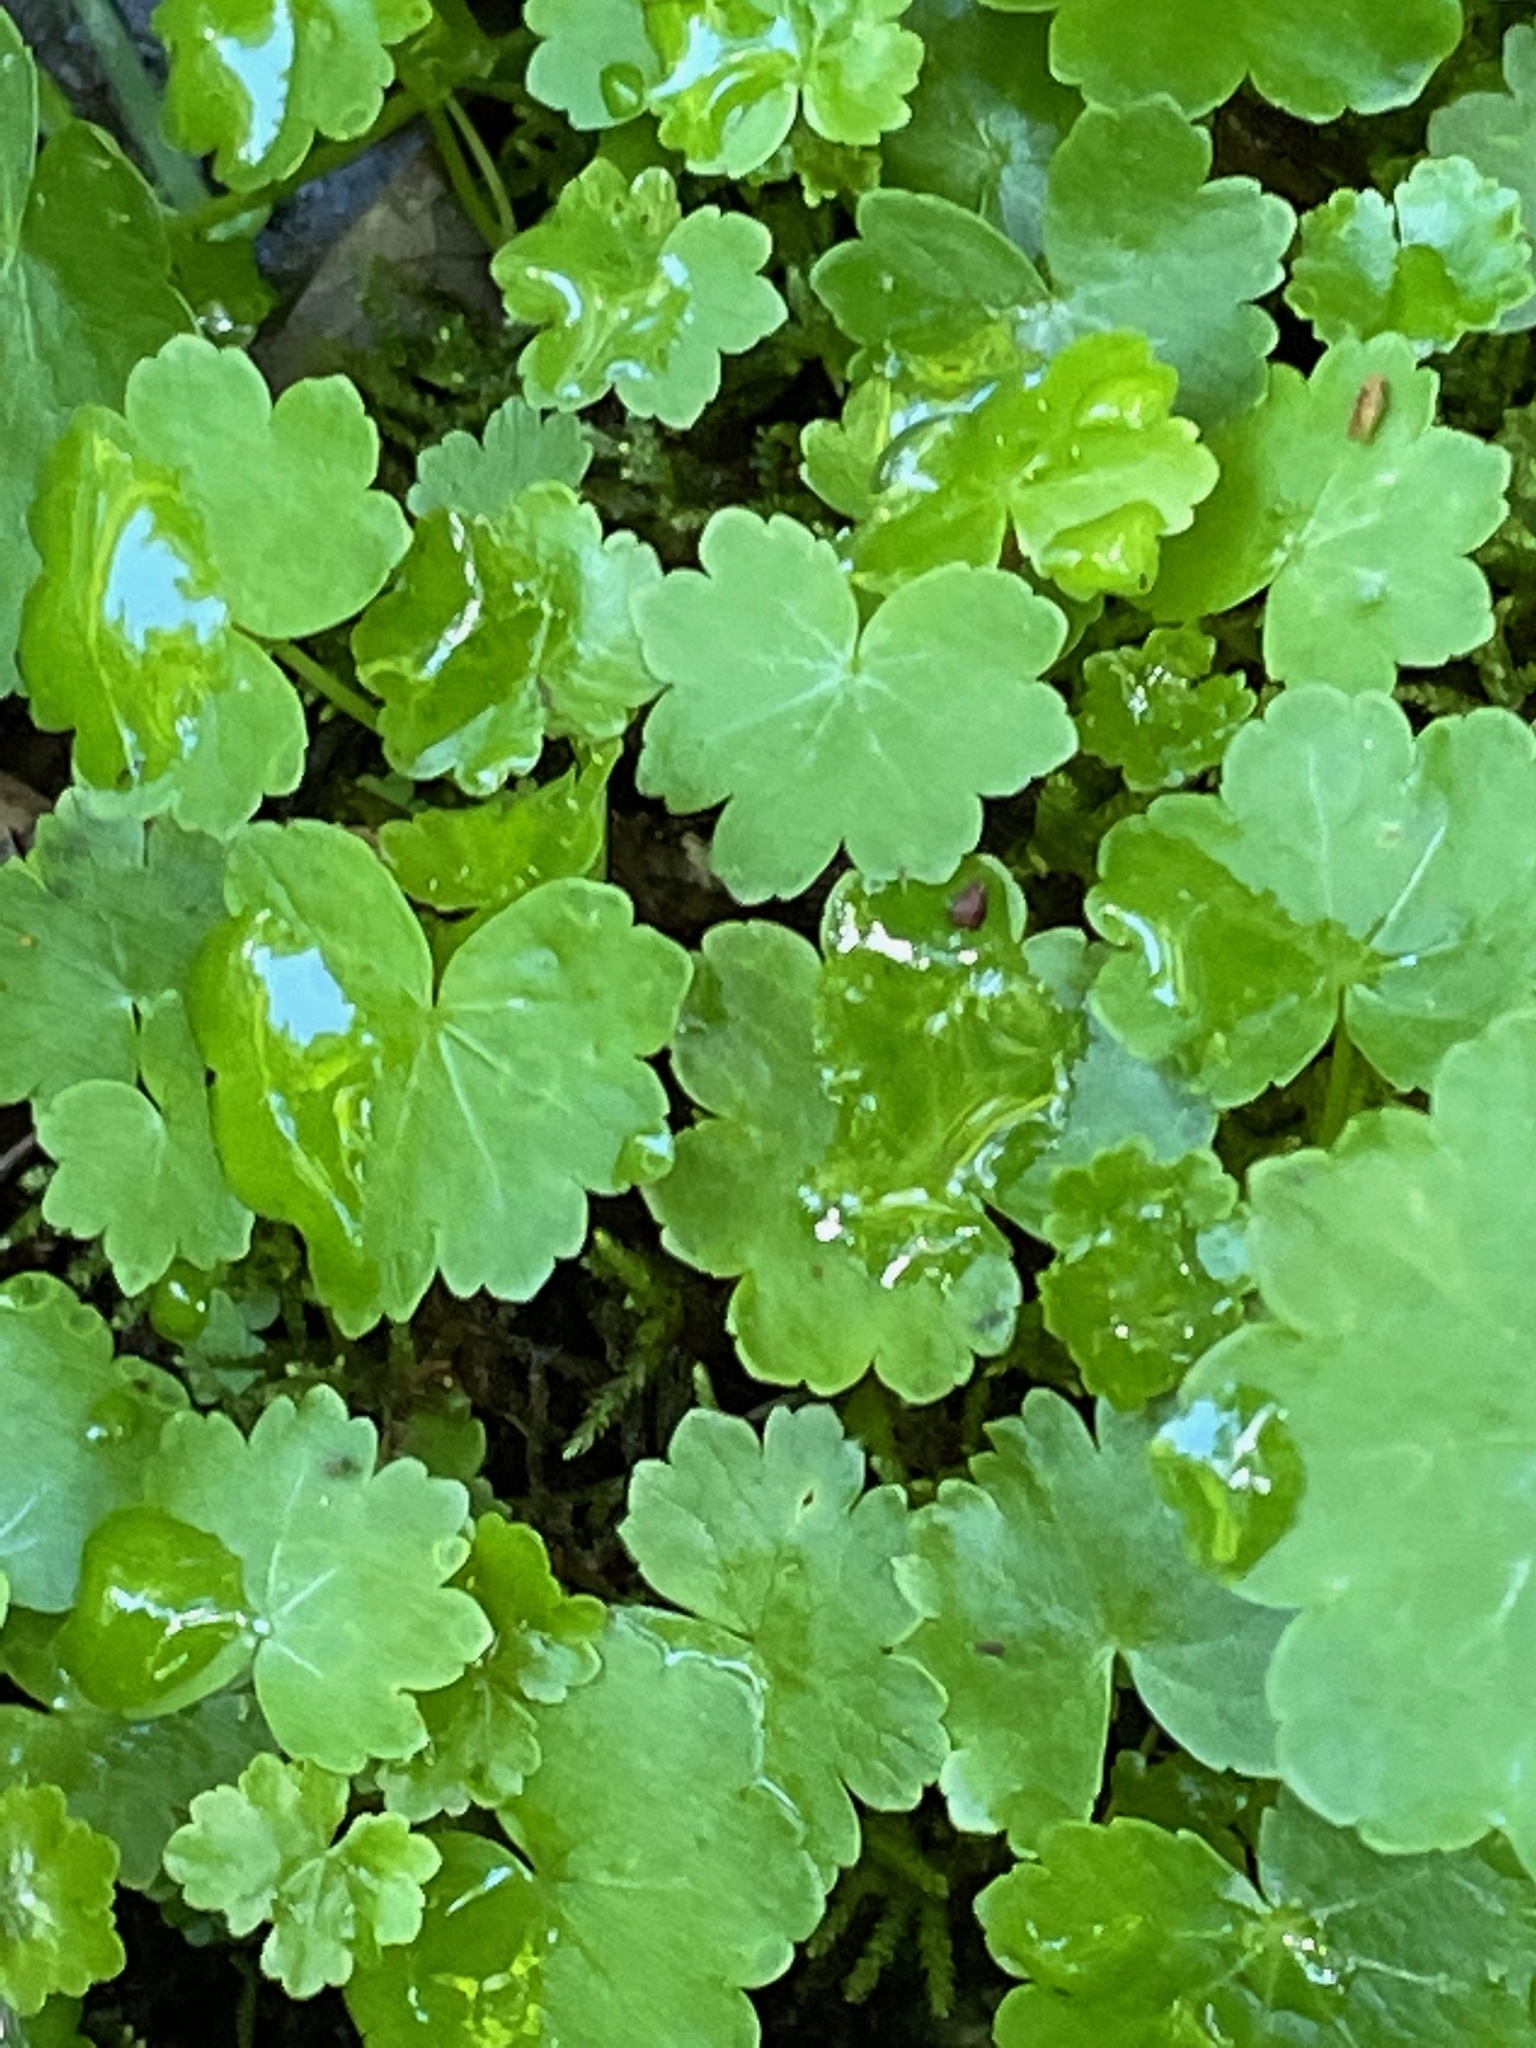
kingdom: Plantae
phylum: Tracheophyta
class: Magnoliopsida
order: Apiales
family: Araliaceae
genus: Hydrocotyle
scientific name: Hydrocotyle americana
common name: American water-pennywort
